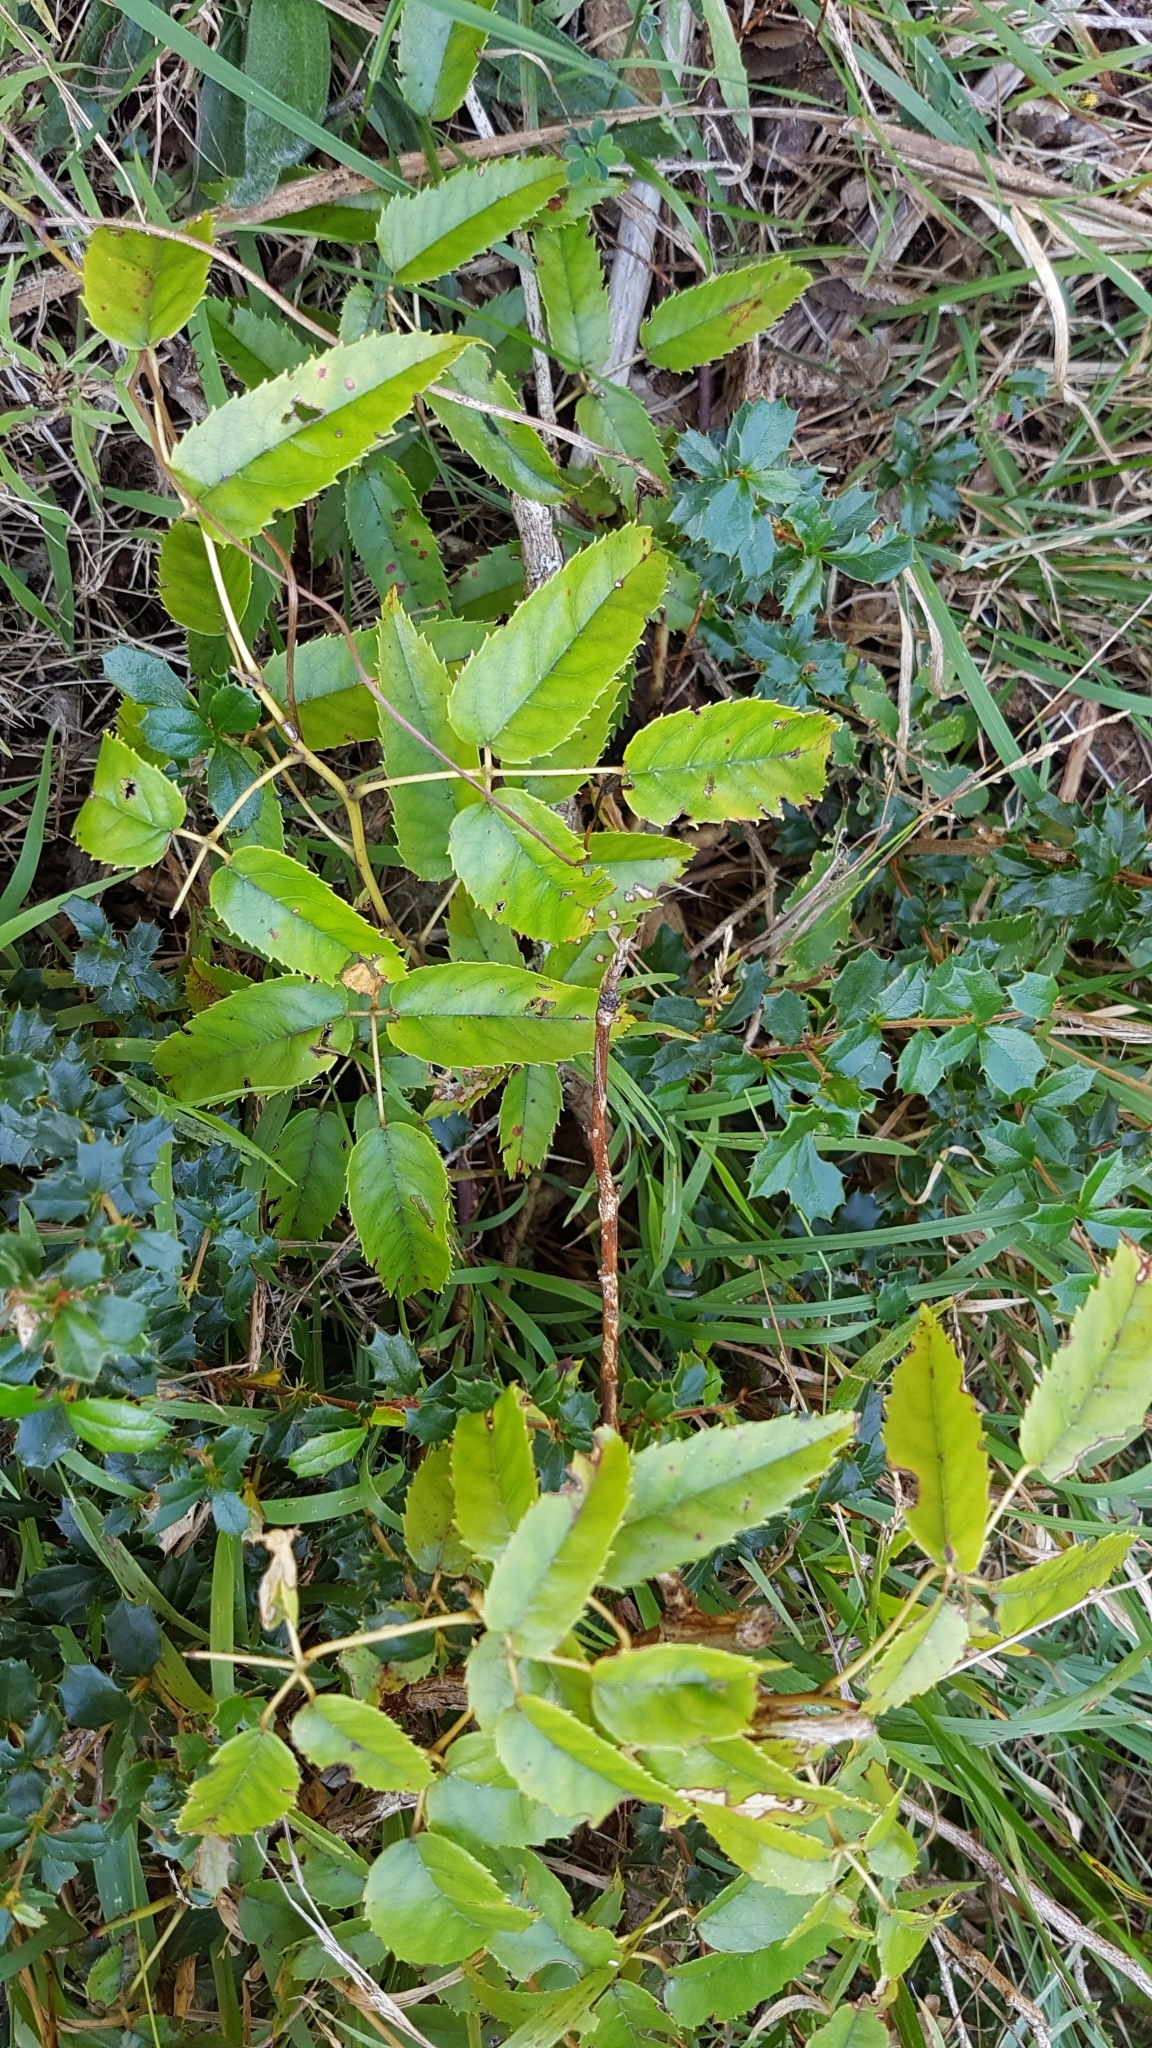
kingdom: Plantae
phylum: Tracheophyta
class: Magnoliopsida
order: Rosales
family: Rosaceae
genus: Rubus
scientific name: Rubus cissoides
